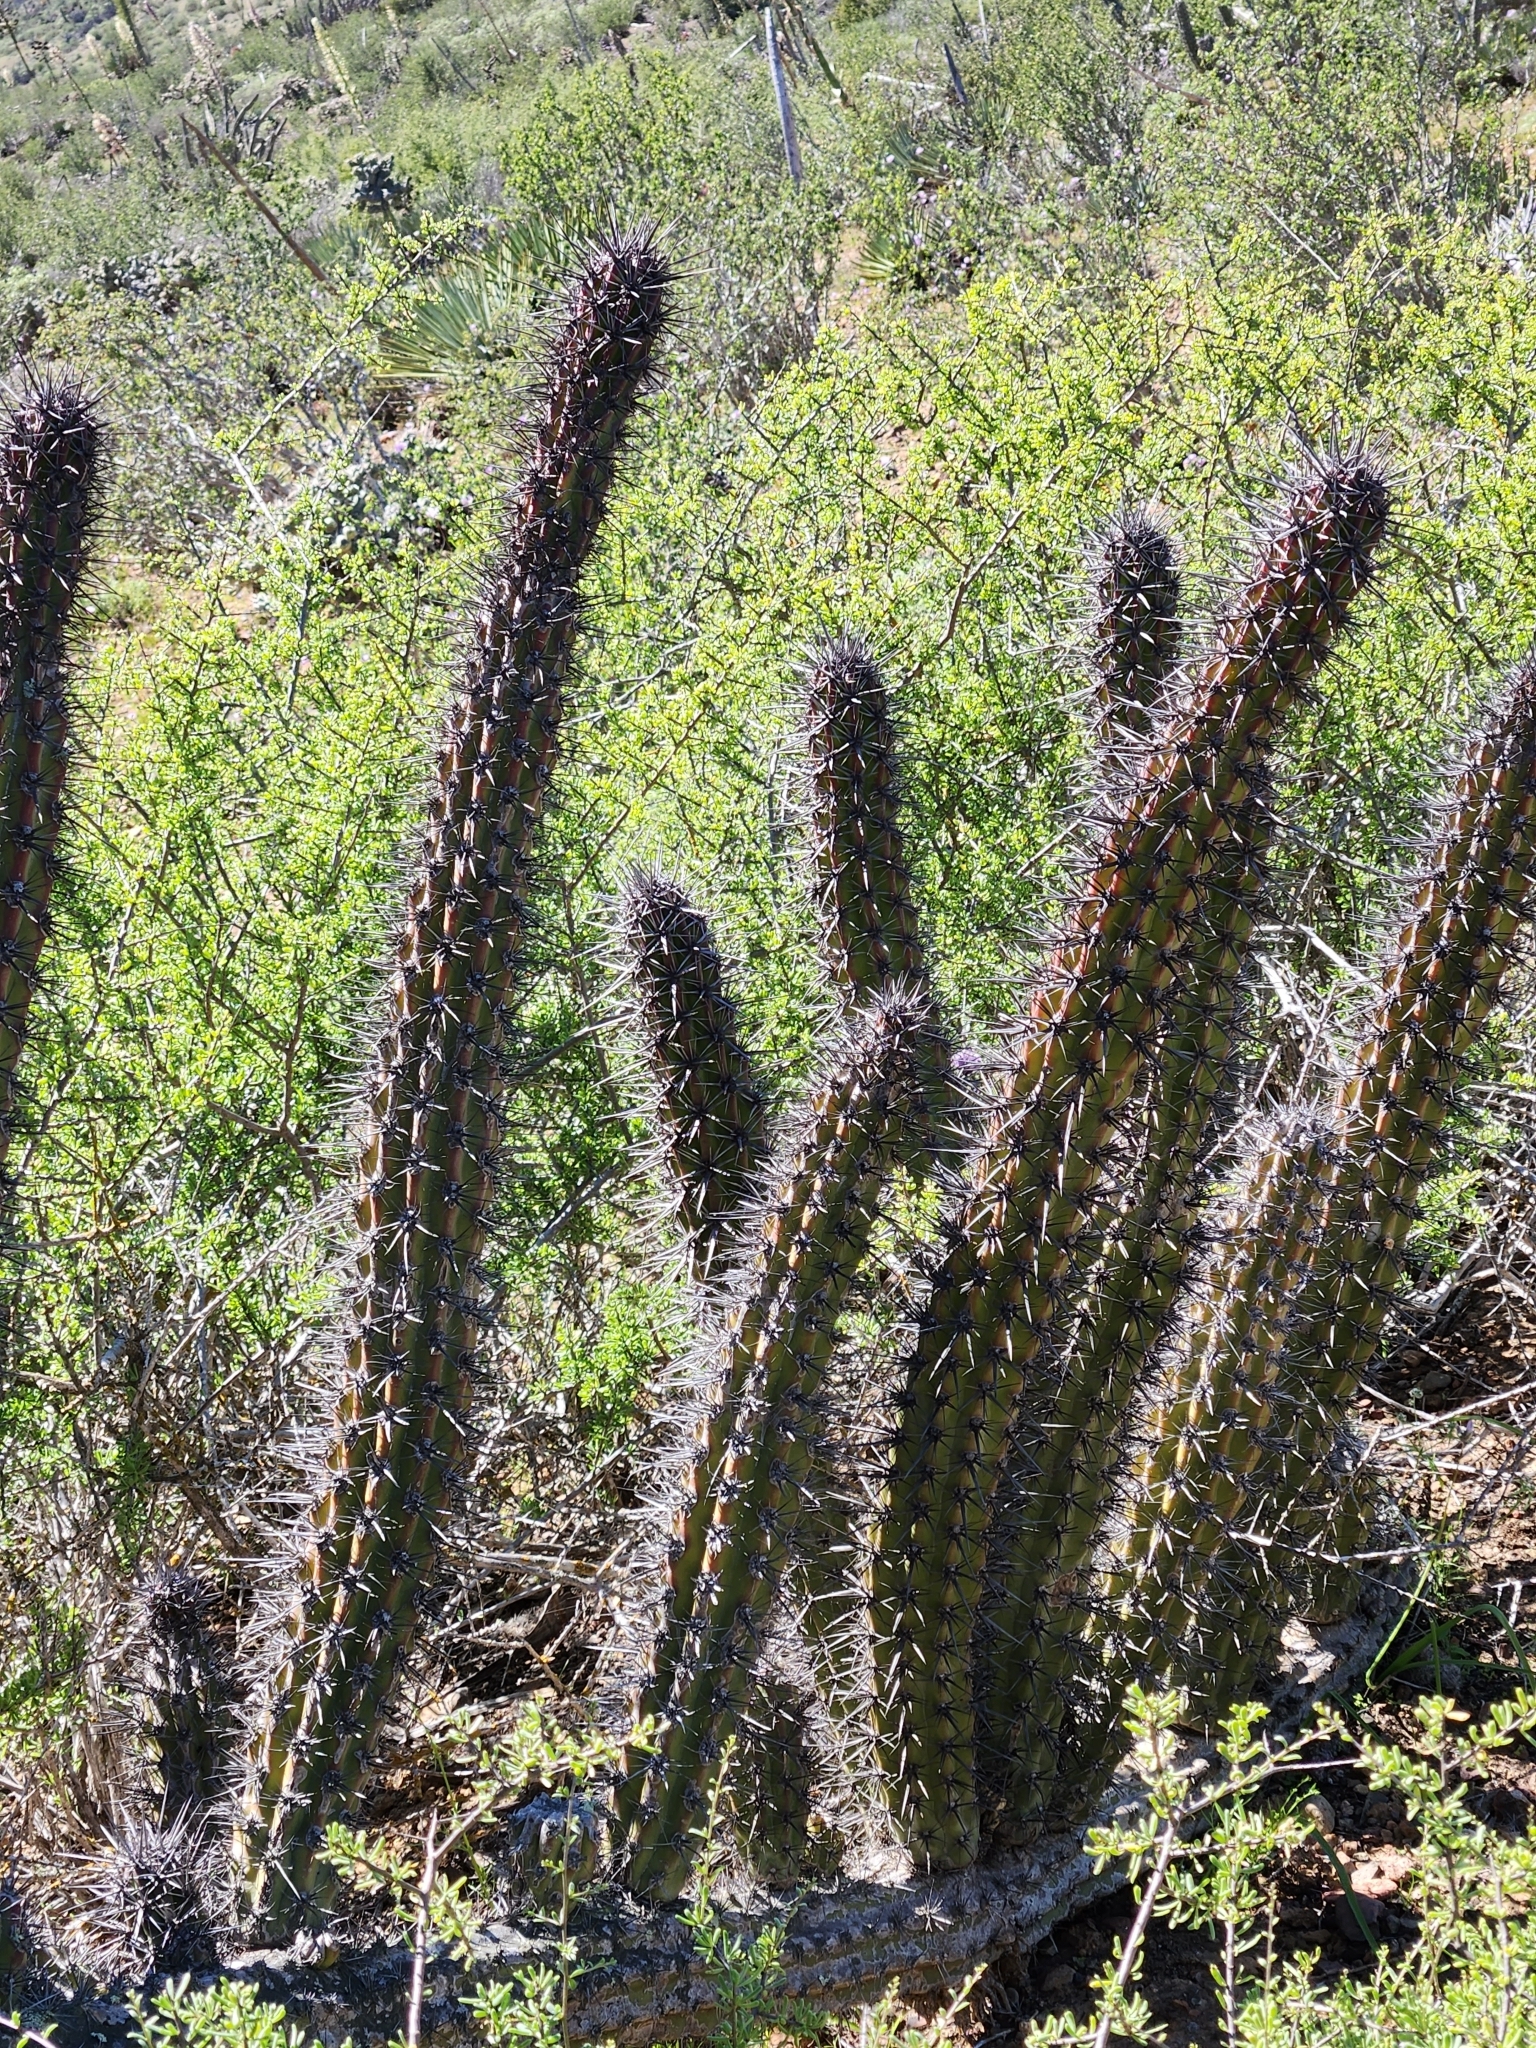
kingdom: Plantae
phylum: Tracheophyta
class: Magnoliopsida
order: Caryophyllales
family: Cactaceae
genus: Stenocereus
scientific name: Stenocereus gummosus
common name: Dagger cactus
